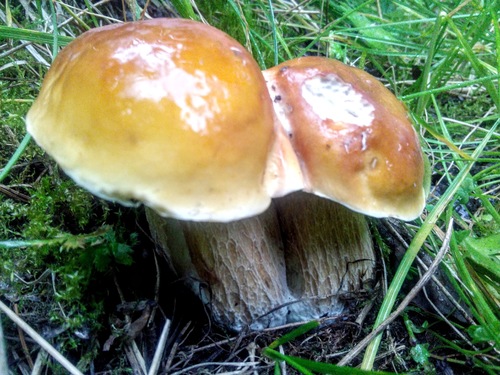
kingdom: Fungi
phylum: Basidiomycota
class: Agaricomycetes
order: Boletales
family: Boletaceae
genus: Boletus
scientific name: Boletus edulis
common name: Cep
